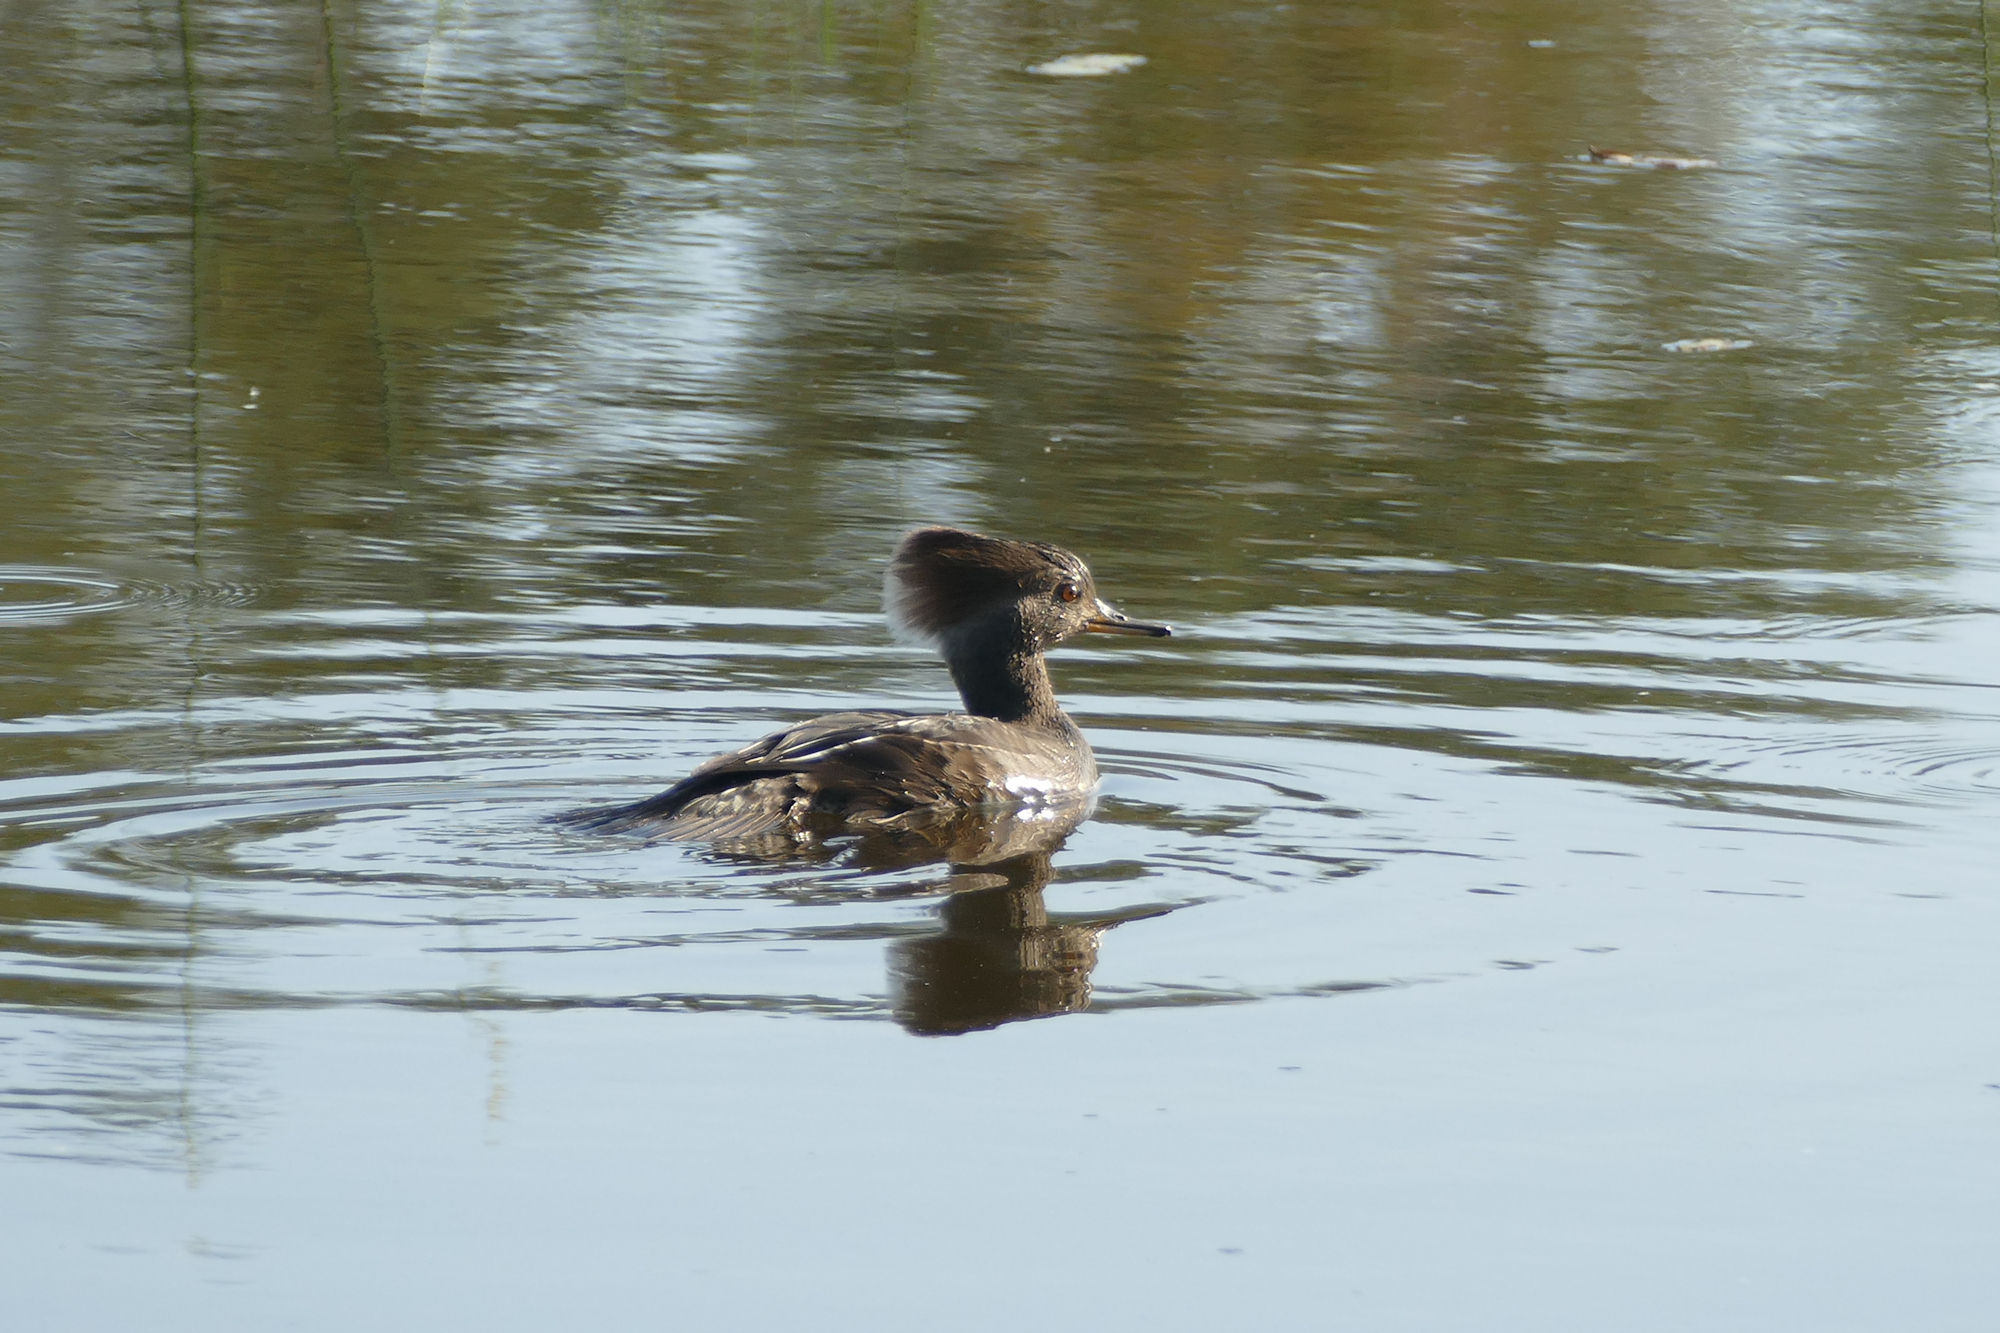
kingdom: Animalia
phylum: Chordata
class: Aves
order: Anseriformes
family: Anatidae
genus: Lophodytes
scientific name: Lophodytes cucullatus
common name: Hooded merganser
